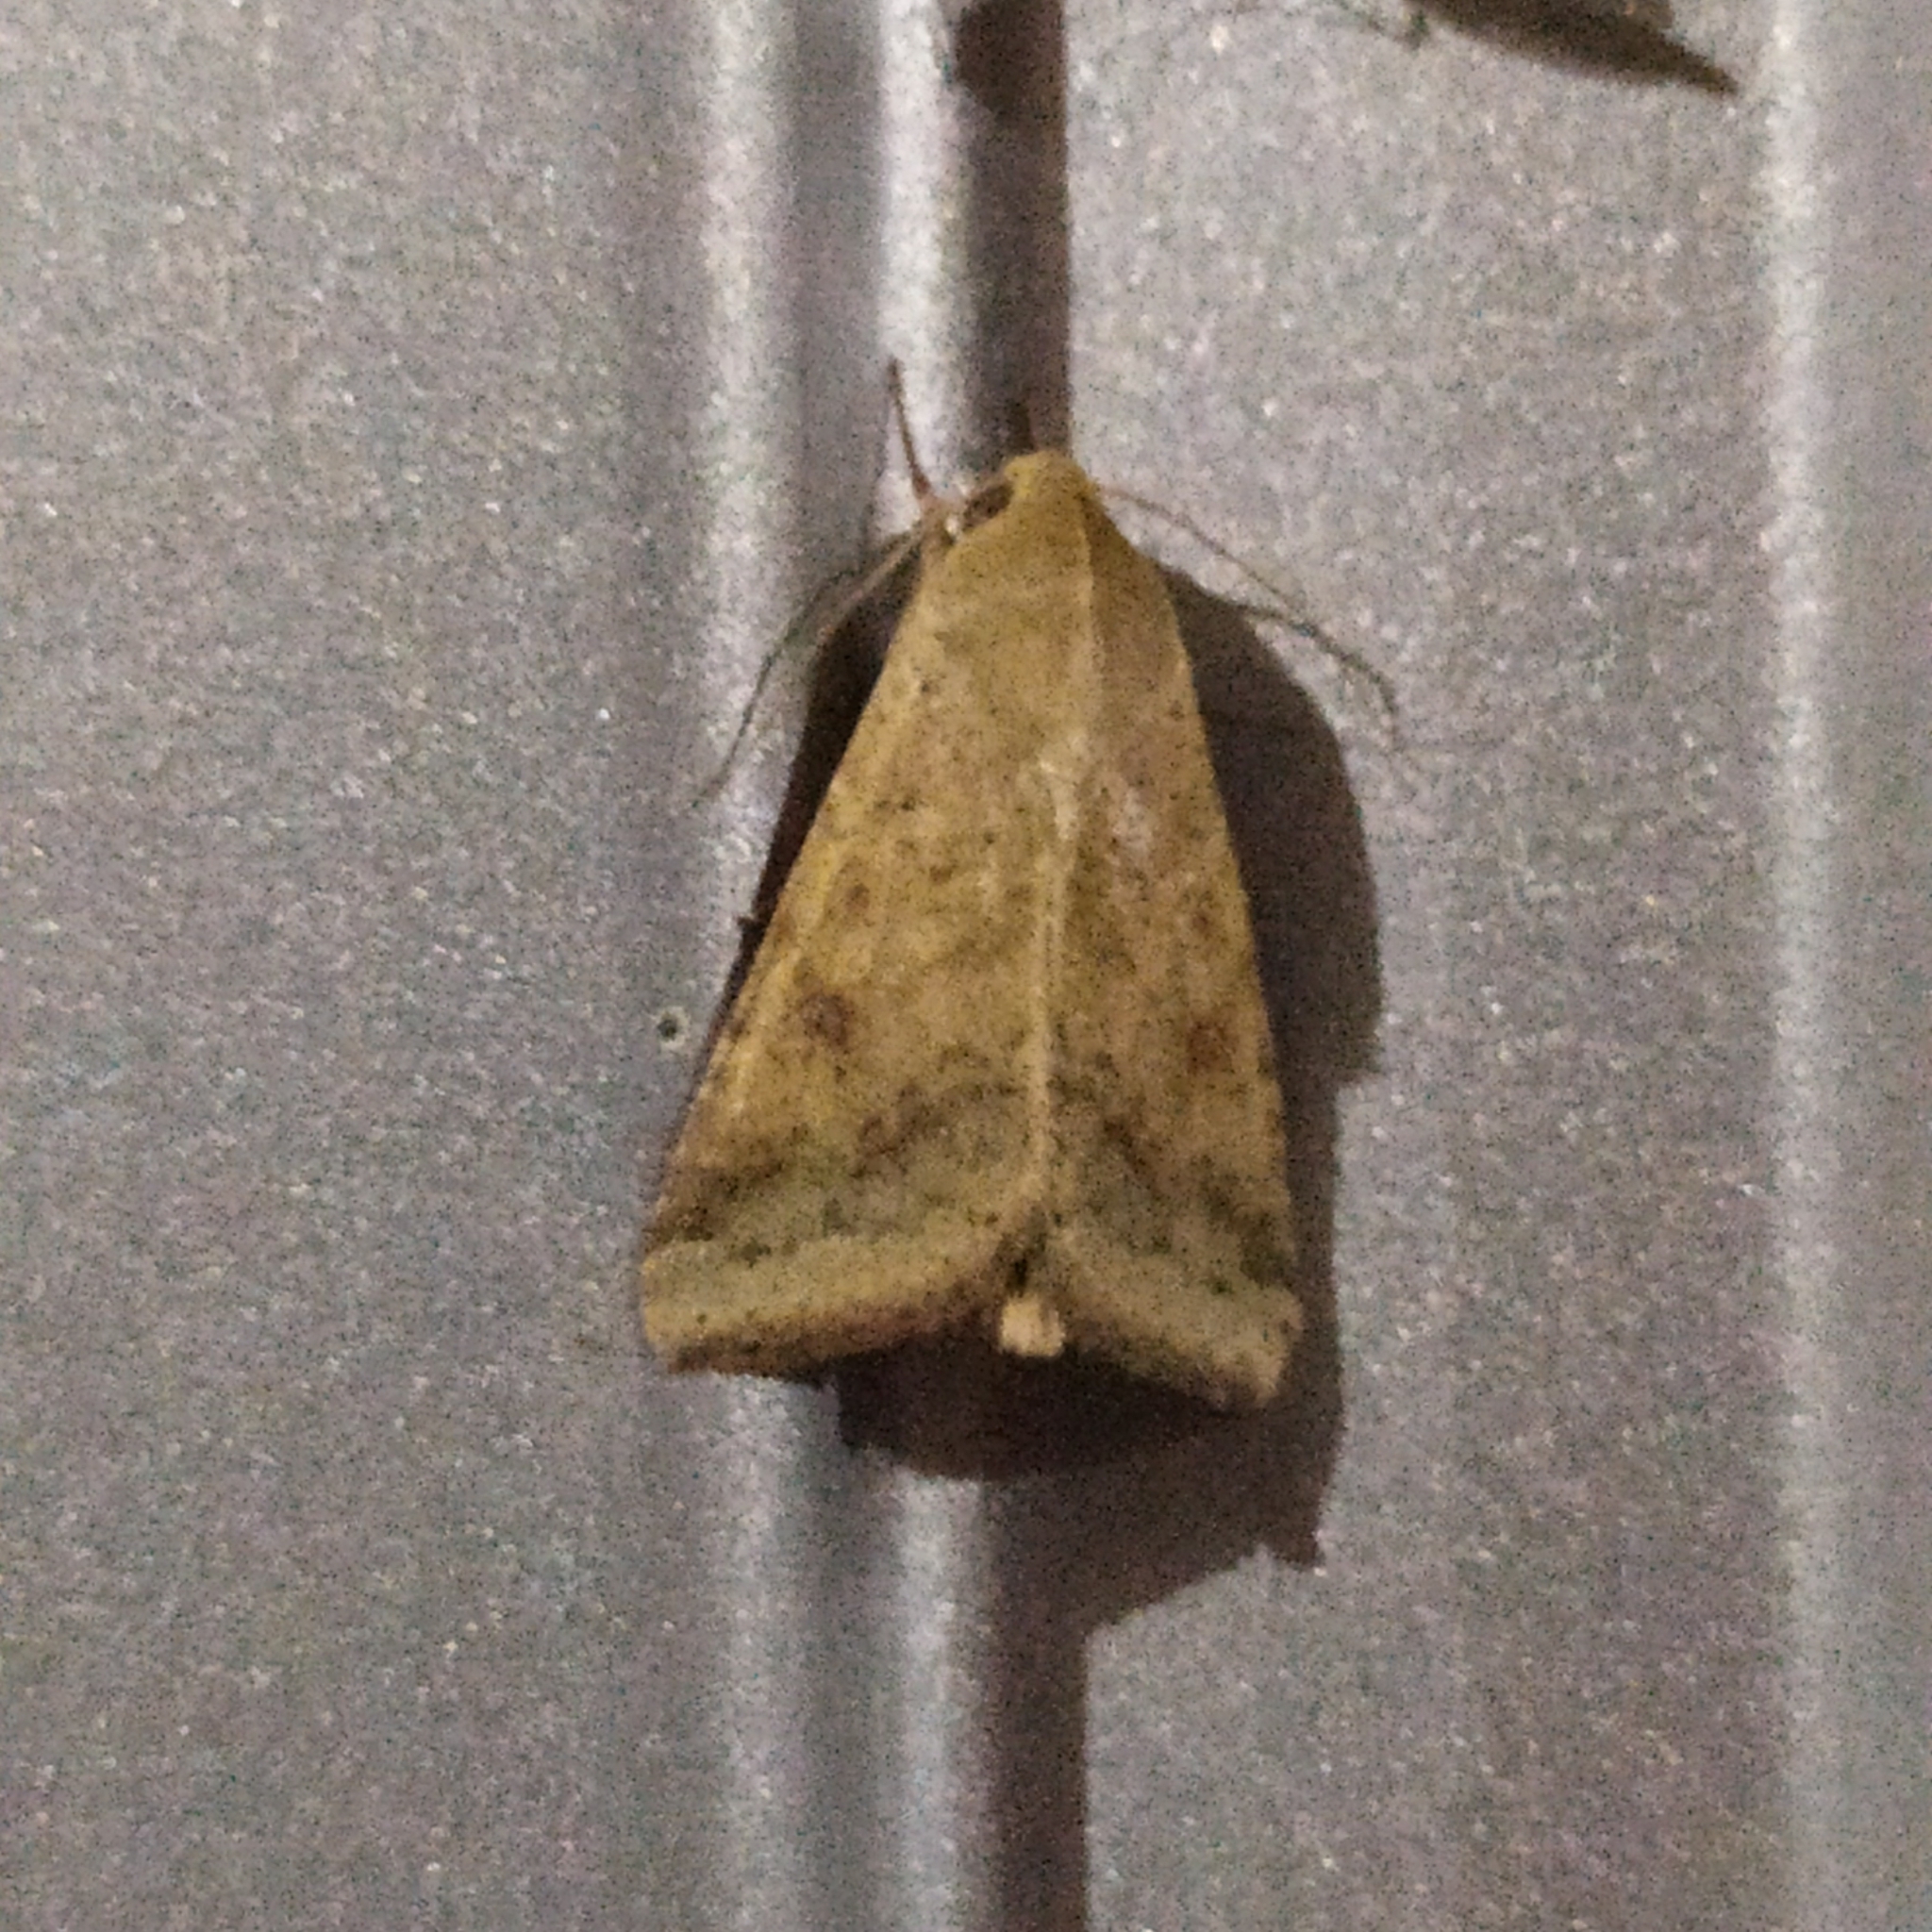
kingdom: Animalia
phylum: Arthropoda
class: Insecta
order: Lepidoptera
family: Noctuidae
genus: Helicoverpa
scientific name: Helicoverpa armigera
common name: Cotton bollworm
